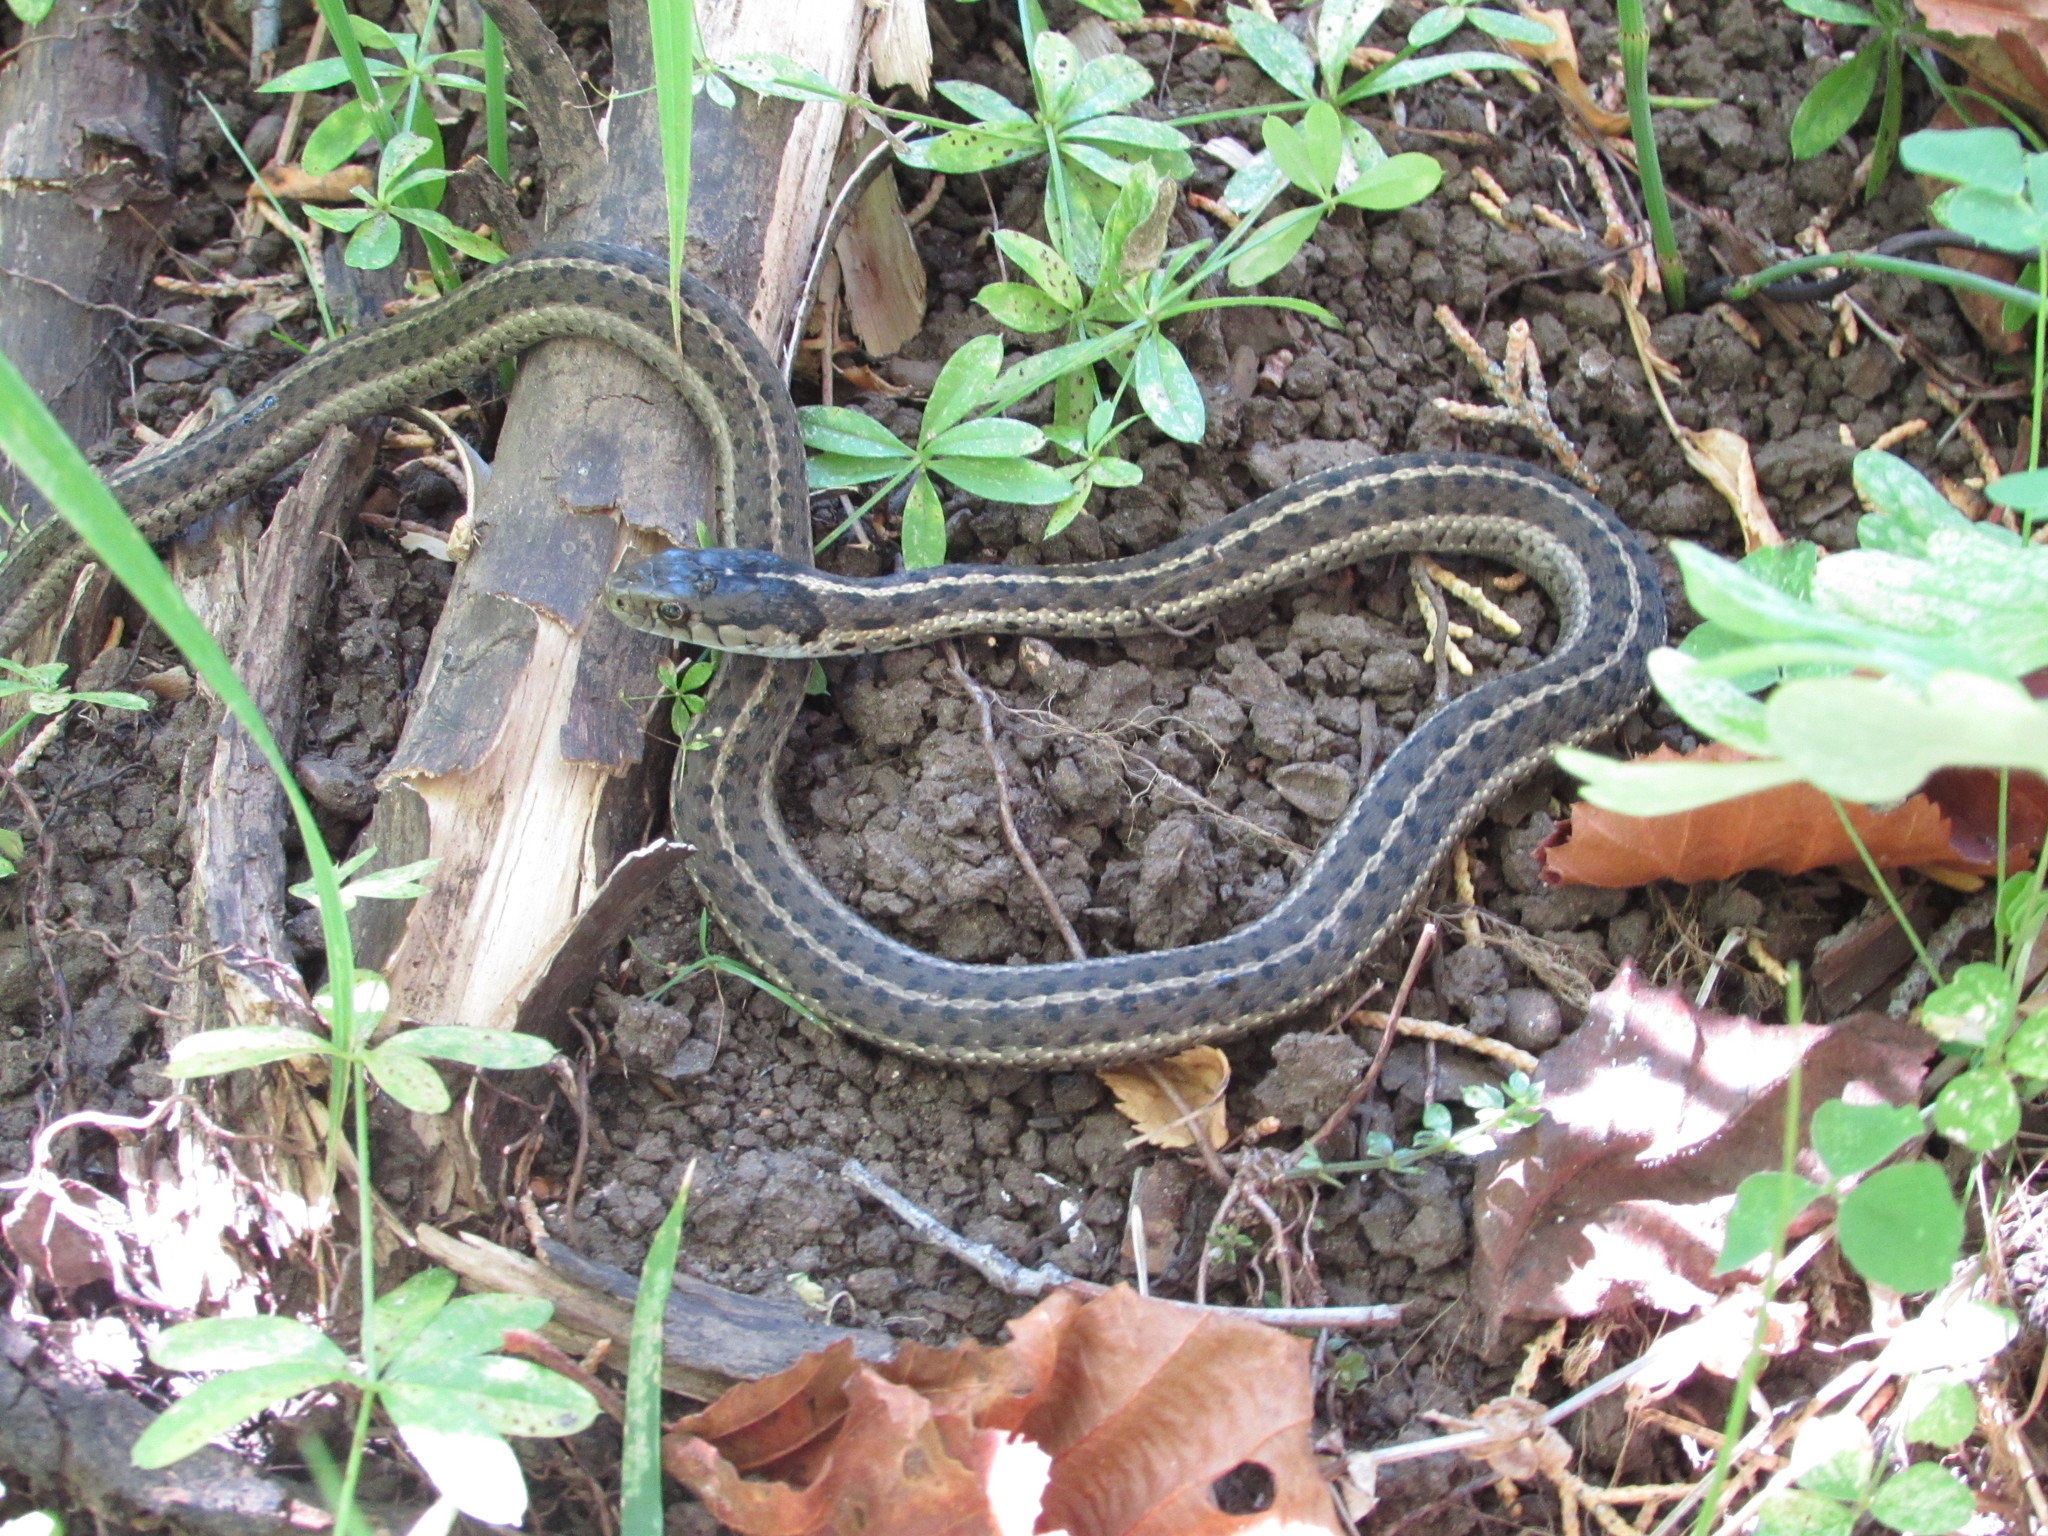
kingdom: Animalia
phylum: Chordata
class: Squamata
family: Colubridae
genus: Thamnophis
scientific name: Thamnophis elegans
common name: Western terrestrial garter snake
